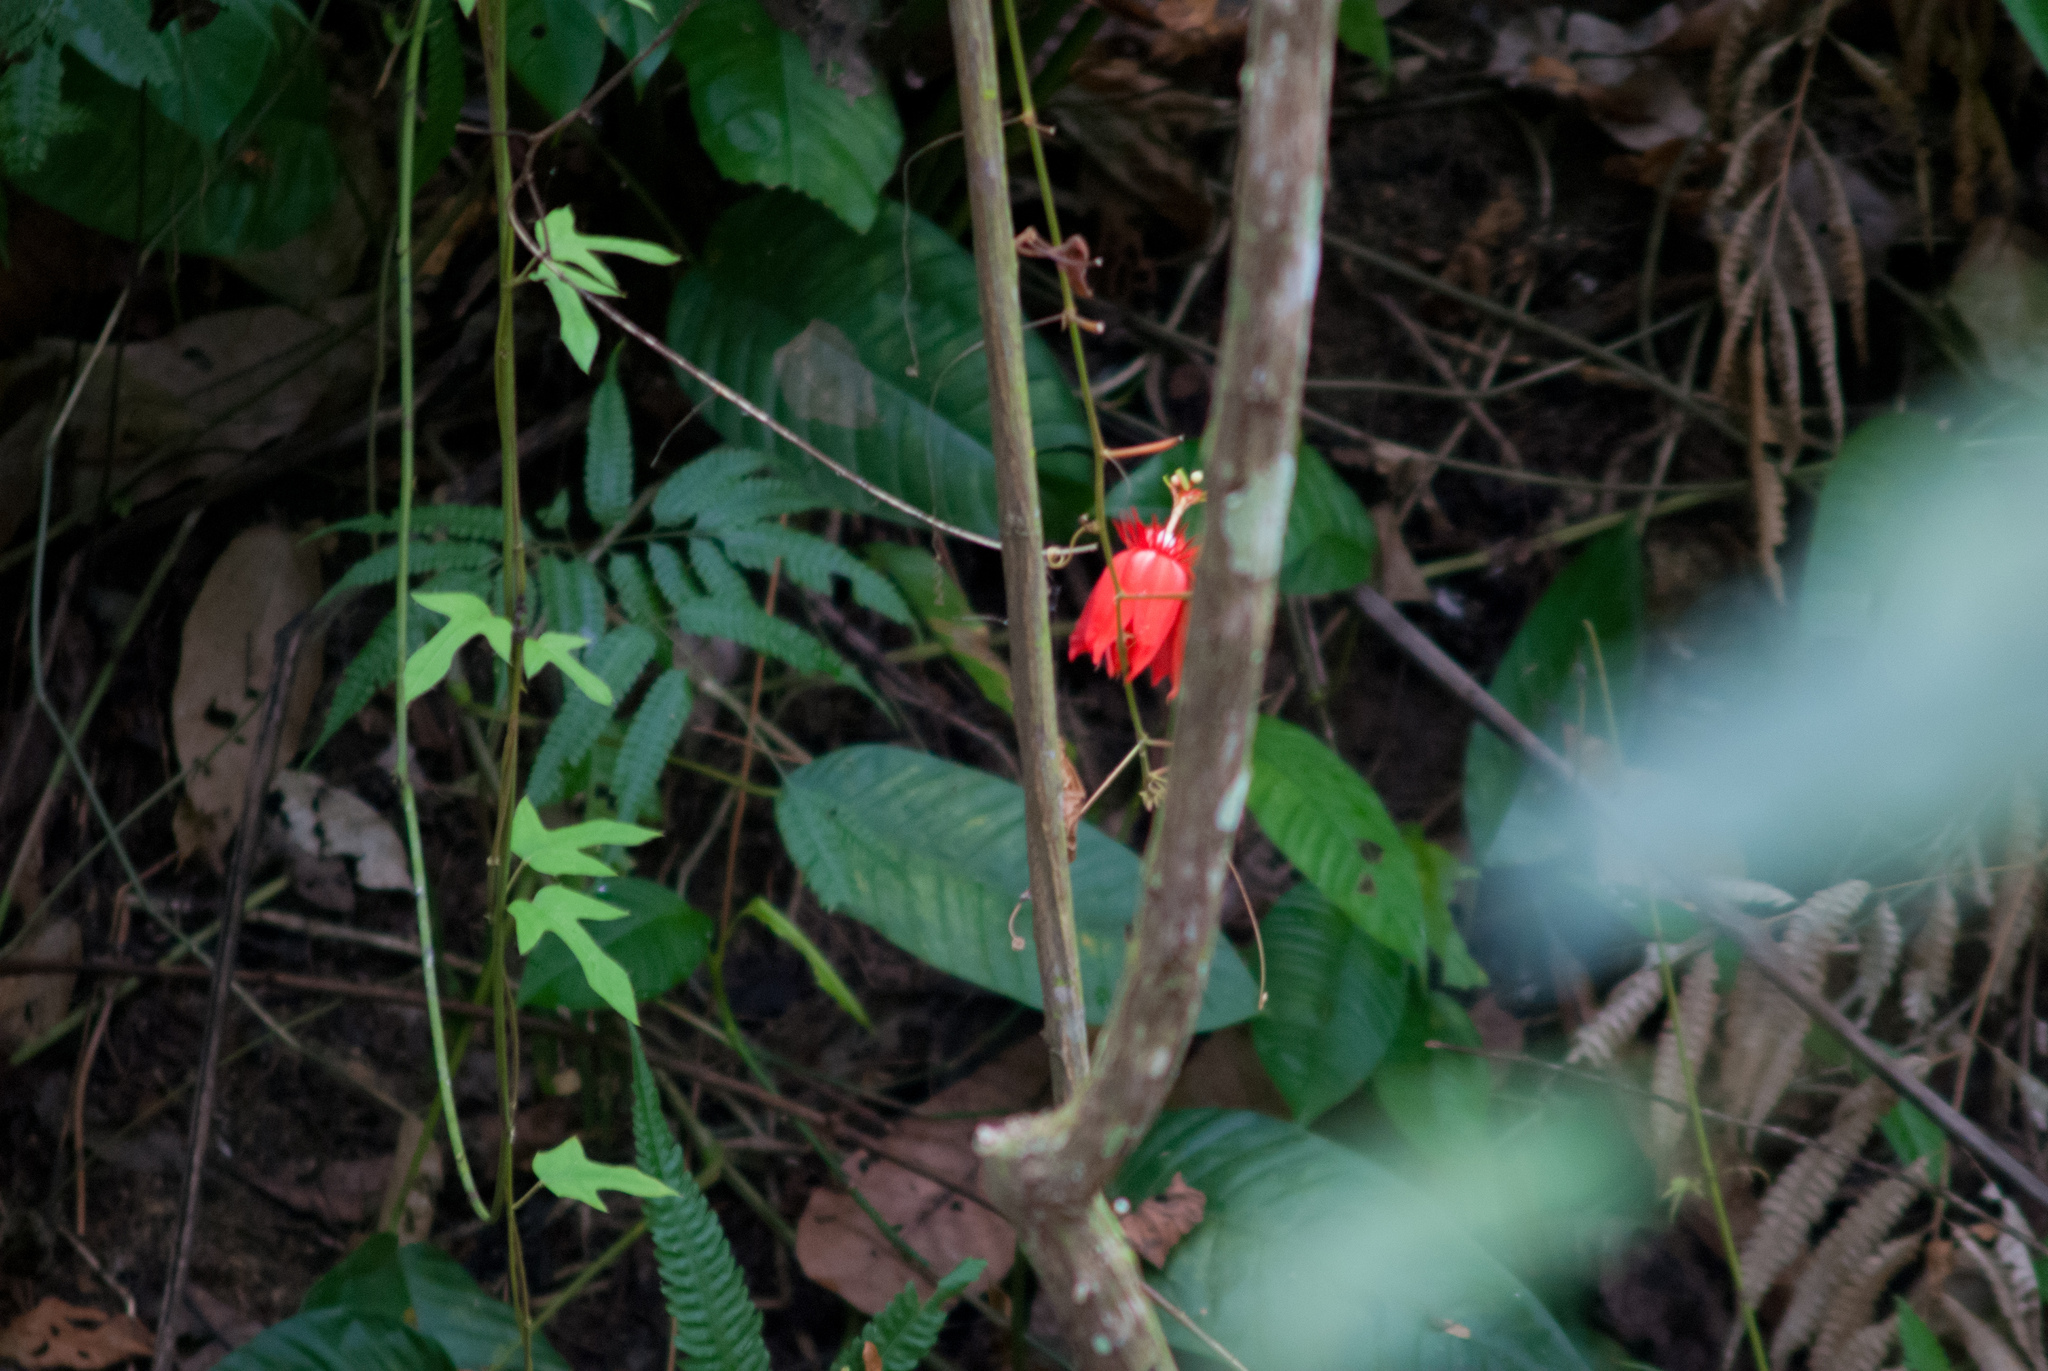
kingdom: Plantae
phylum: Tracheophyta
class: Magnoliopsida
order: Malpighiales
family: Passifloraceae
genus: Passiflora
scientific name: Passiflora vitifolia
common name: Perfumed passionflower
